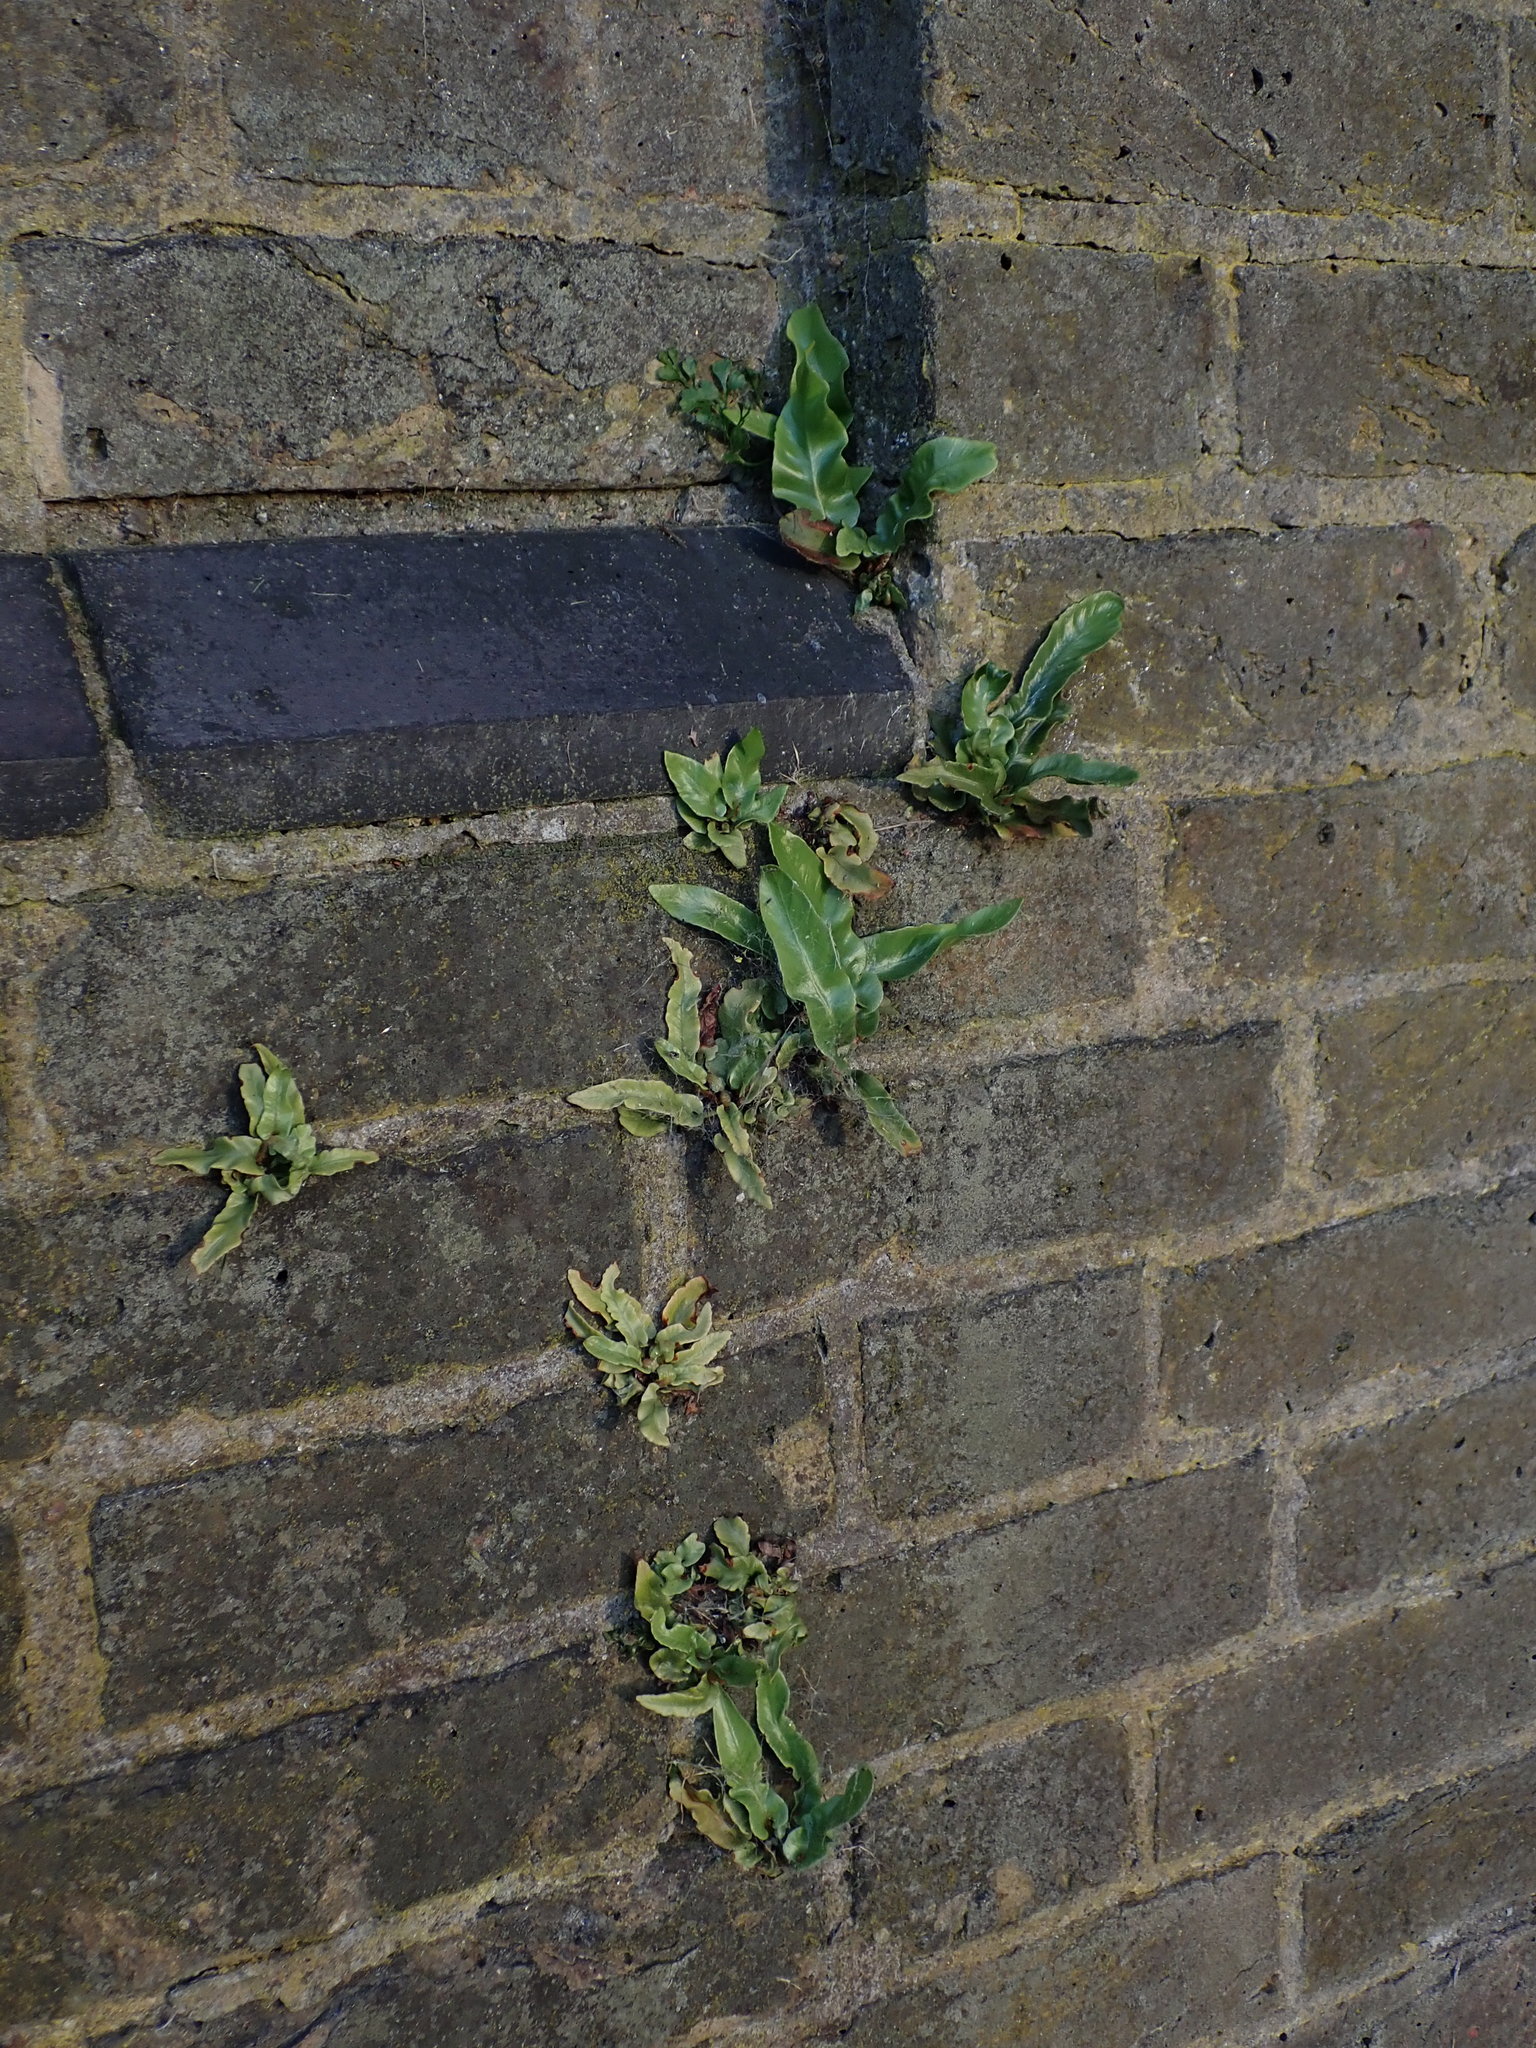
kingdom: Plantae
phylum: Tracheophyta
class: Polypodiopsida
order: Polypodiales
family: Aspleniaceae
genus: Asplenium
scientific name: Asplenium scolopendrium
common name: Hart's-tongue fern
